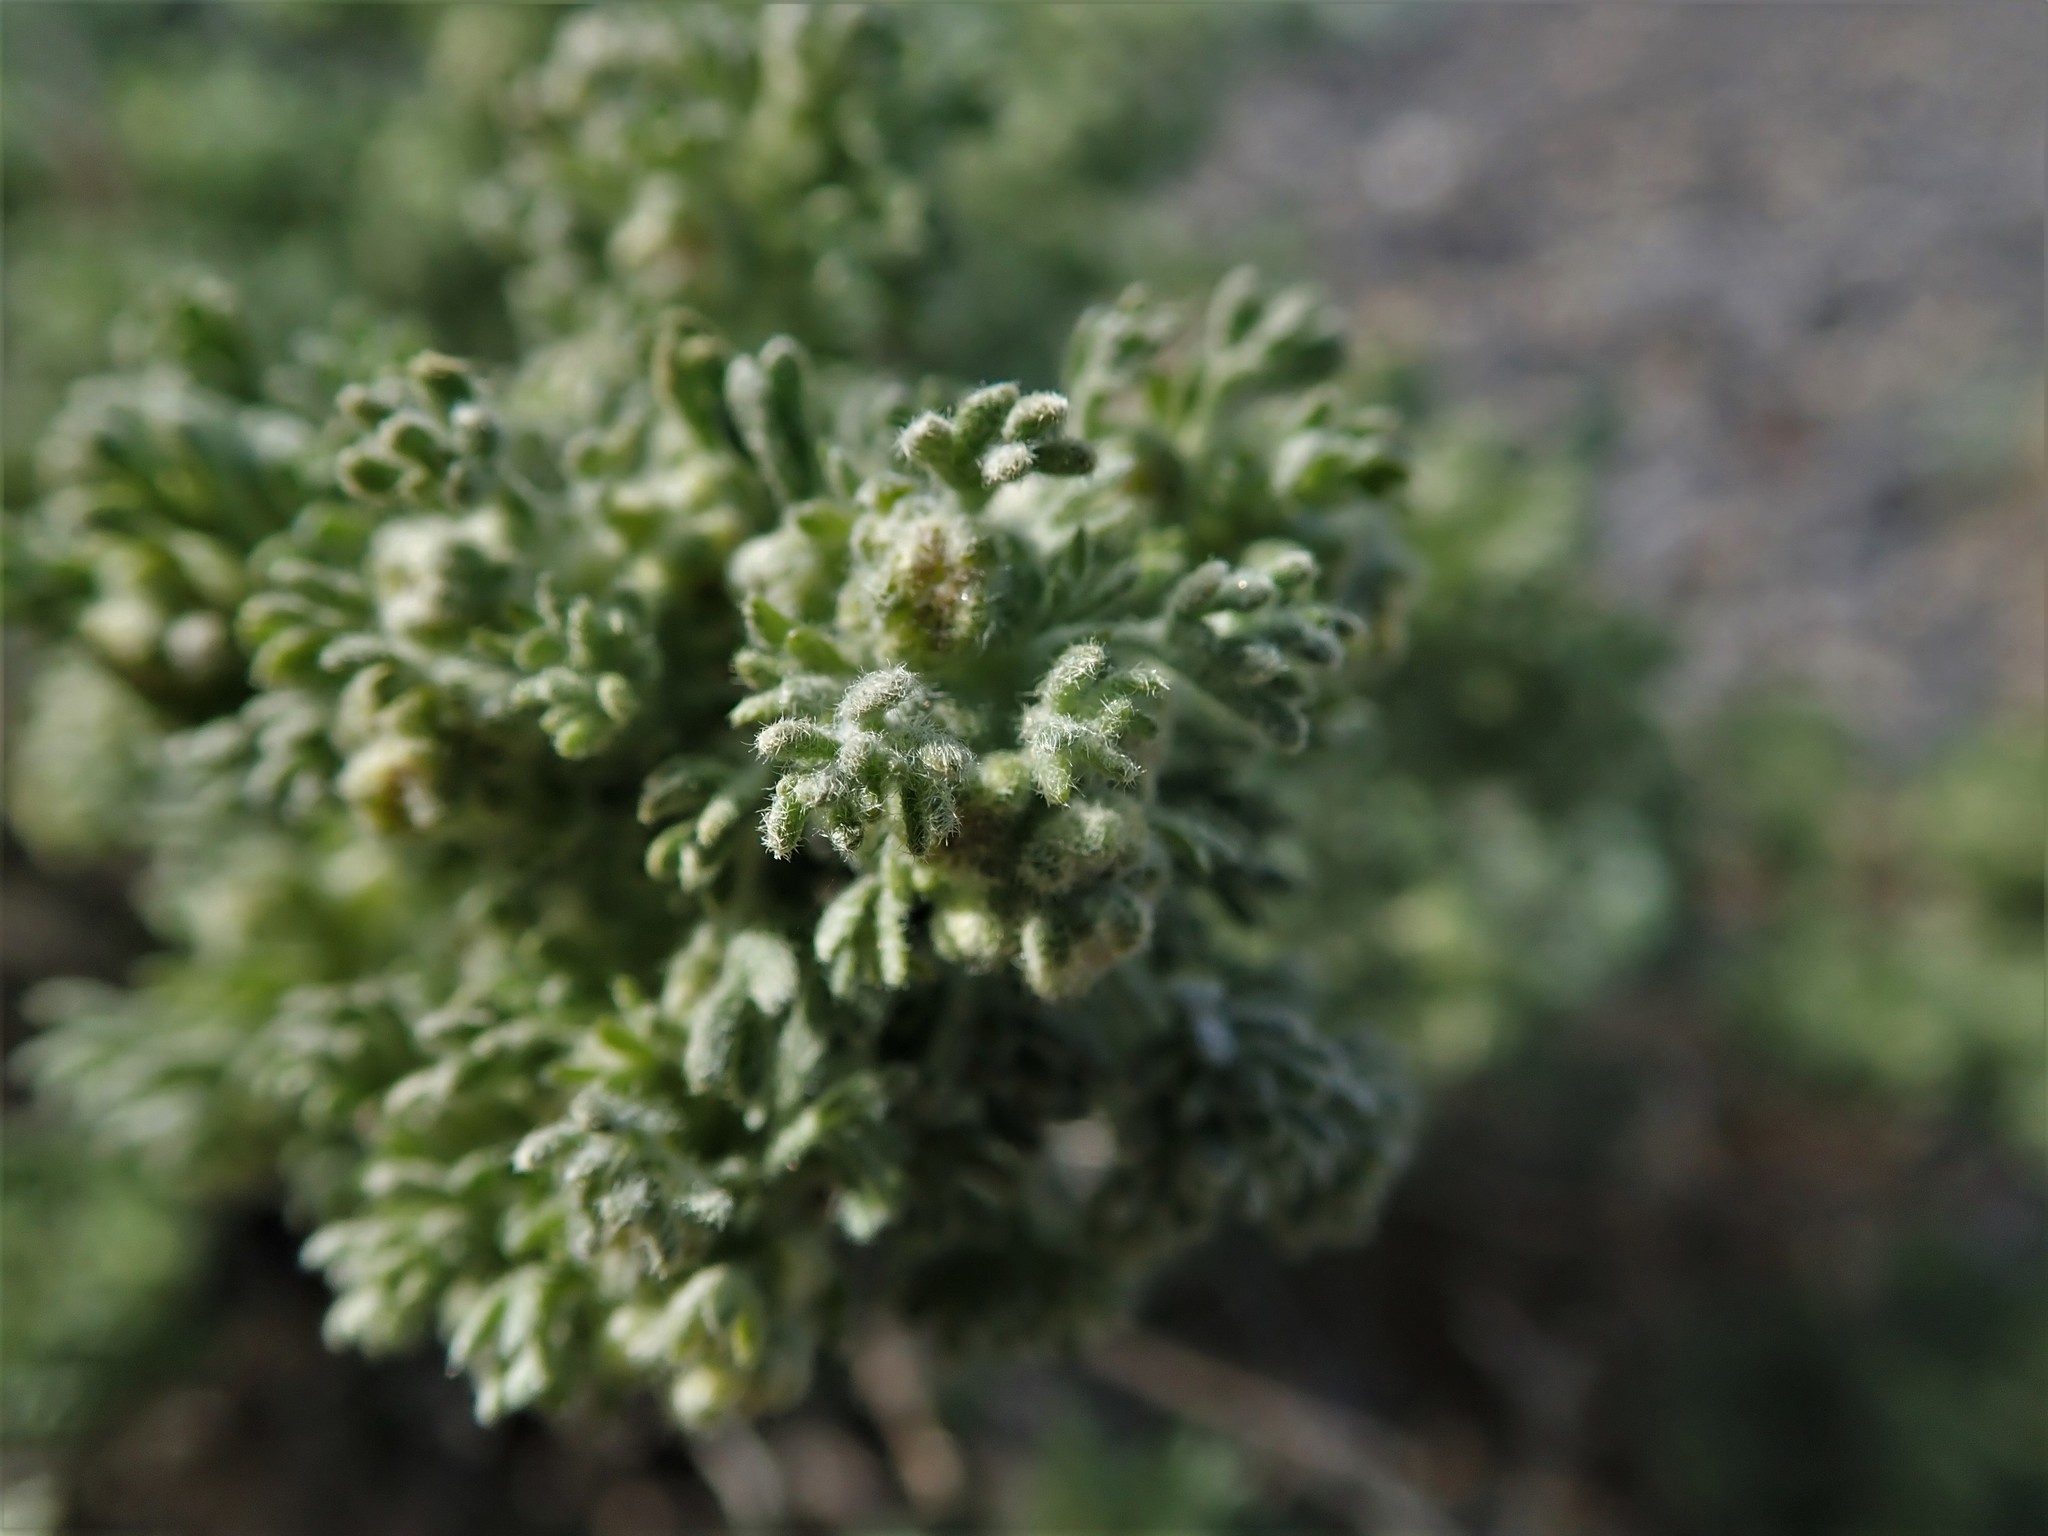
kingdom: Plantae
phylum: Tracheophyta
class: Magnoliopsida
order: Asterales
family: Asteraceae
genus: Artemisia
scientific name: Artemisia spinescens
